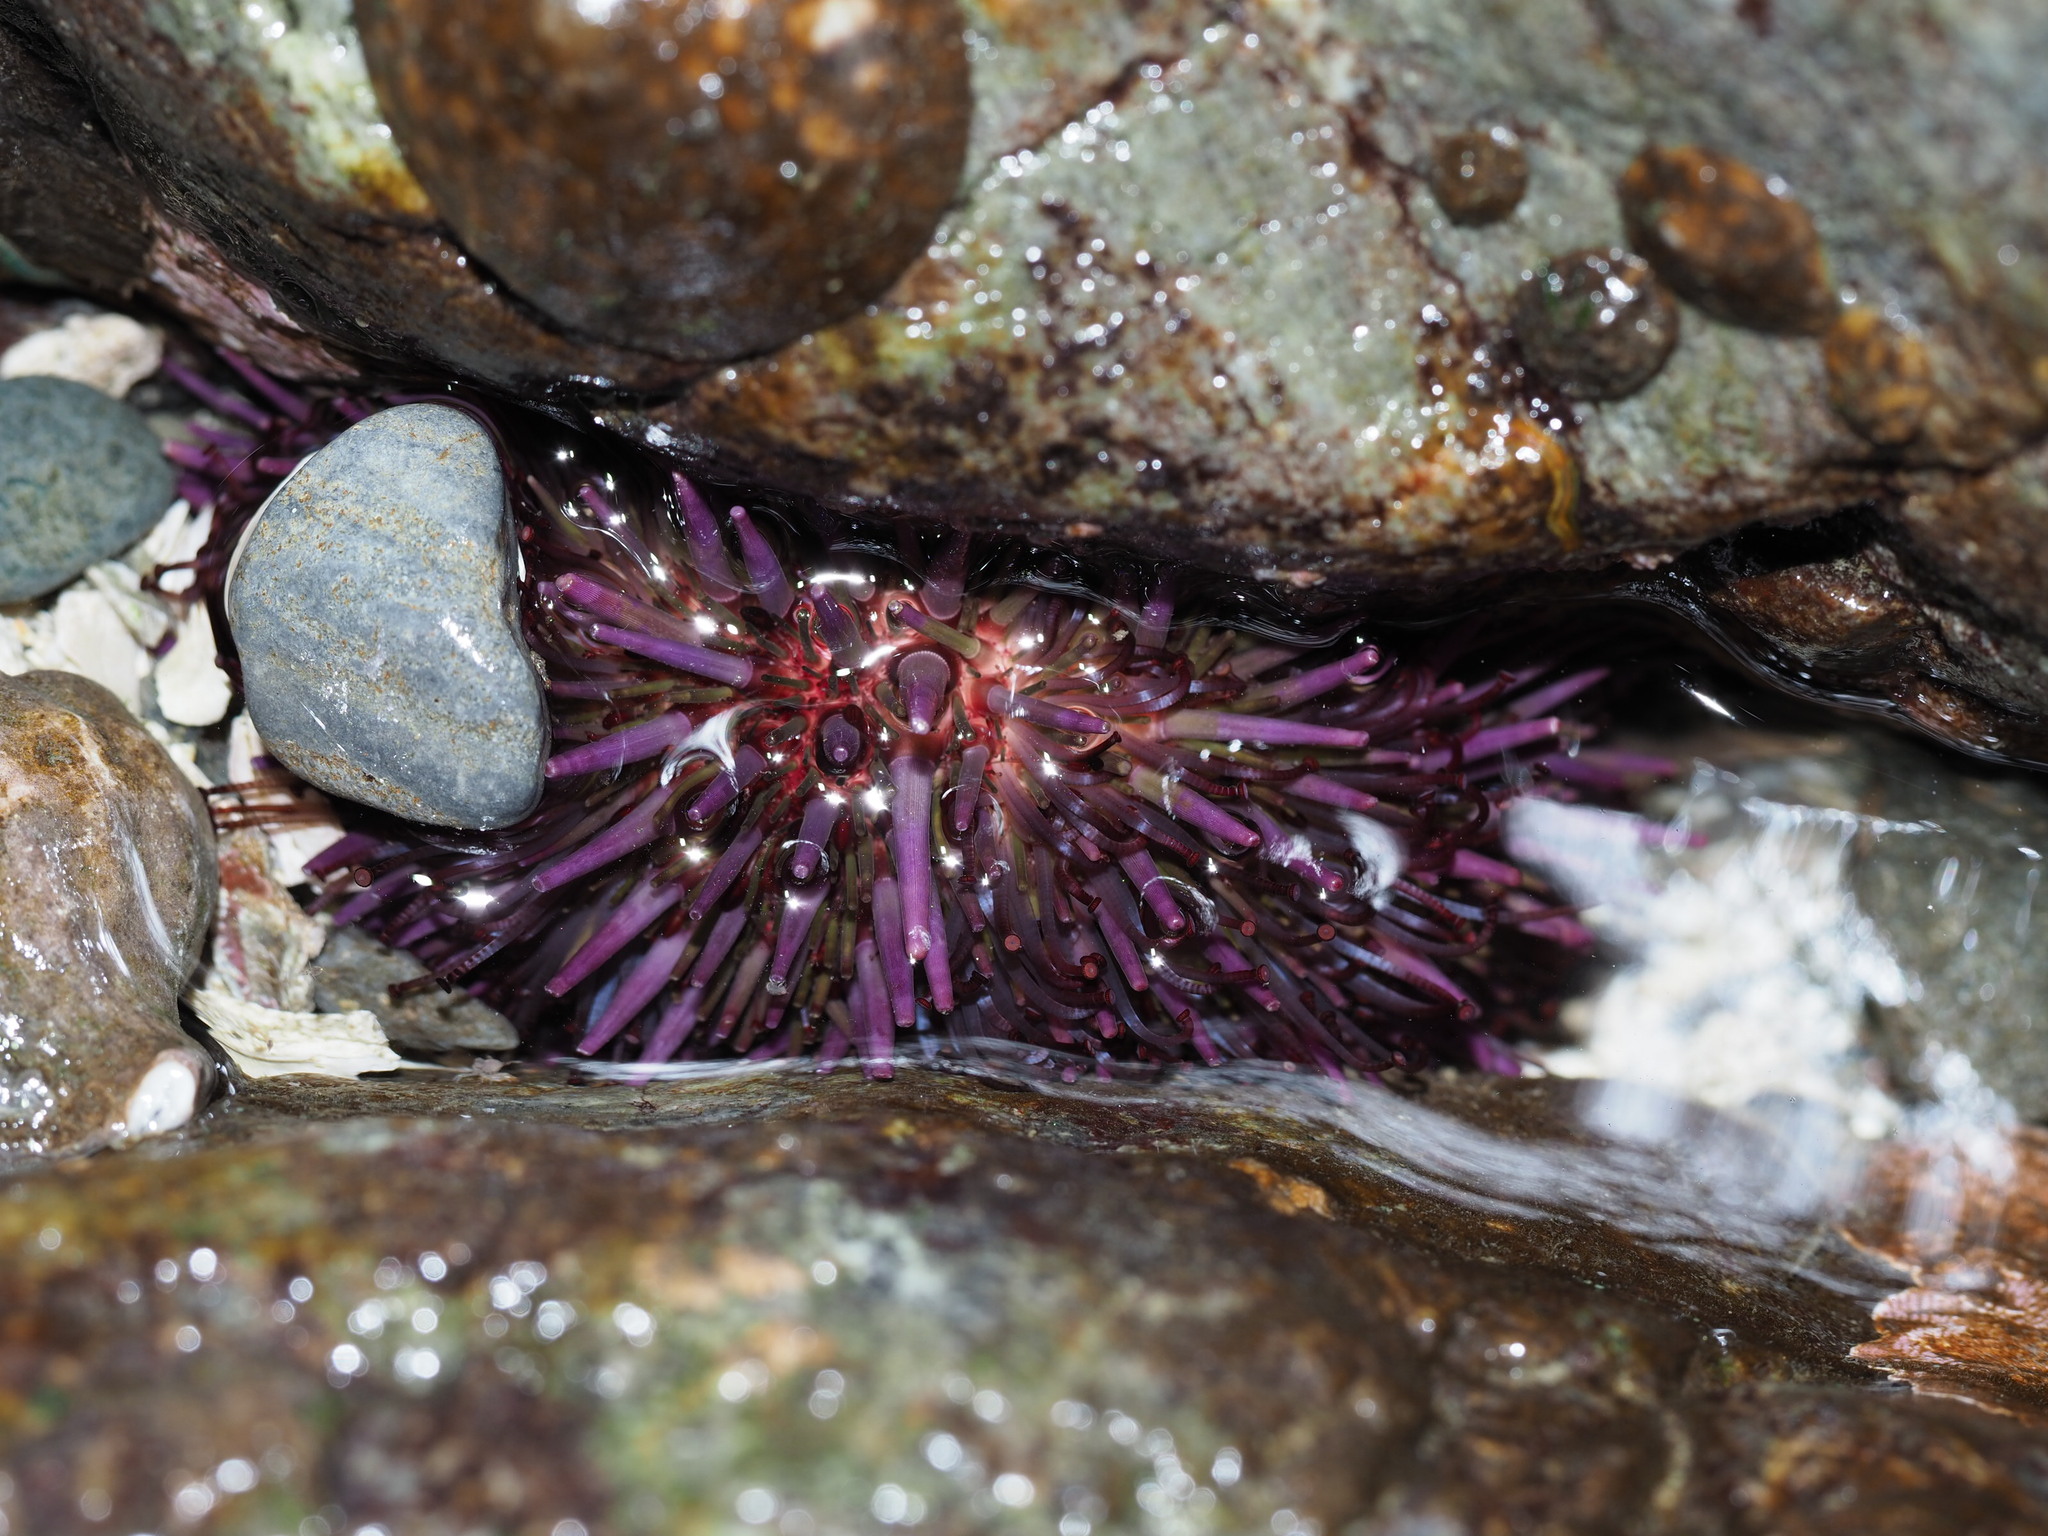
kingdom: Animalia
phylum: Echinodermata
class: Echinoidea
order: Camarodonta
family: Strongylocentrotidae
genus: Strongylocentrotus
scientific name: Strongylocentrotus purpuratus
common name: Purple sea urchin
